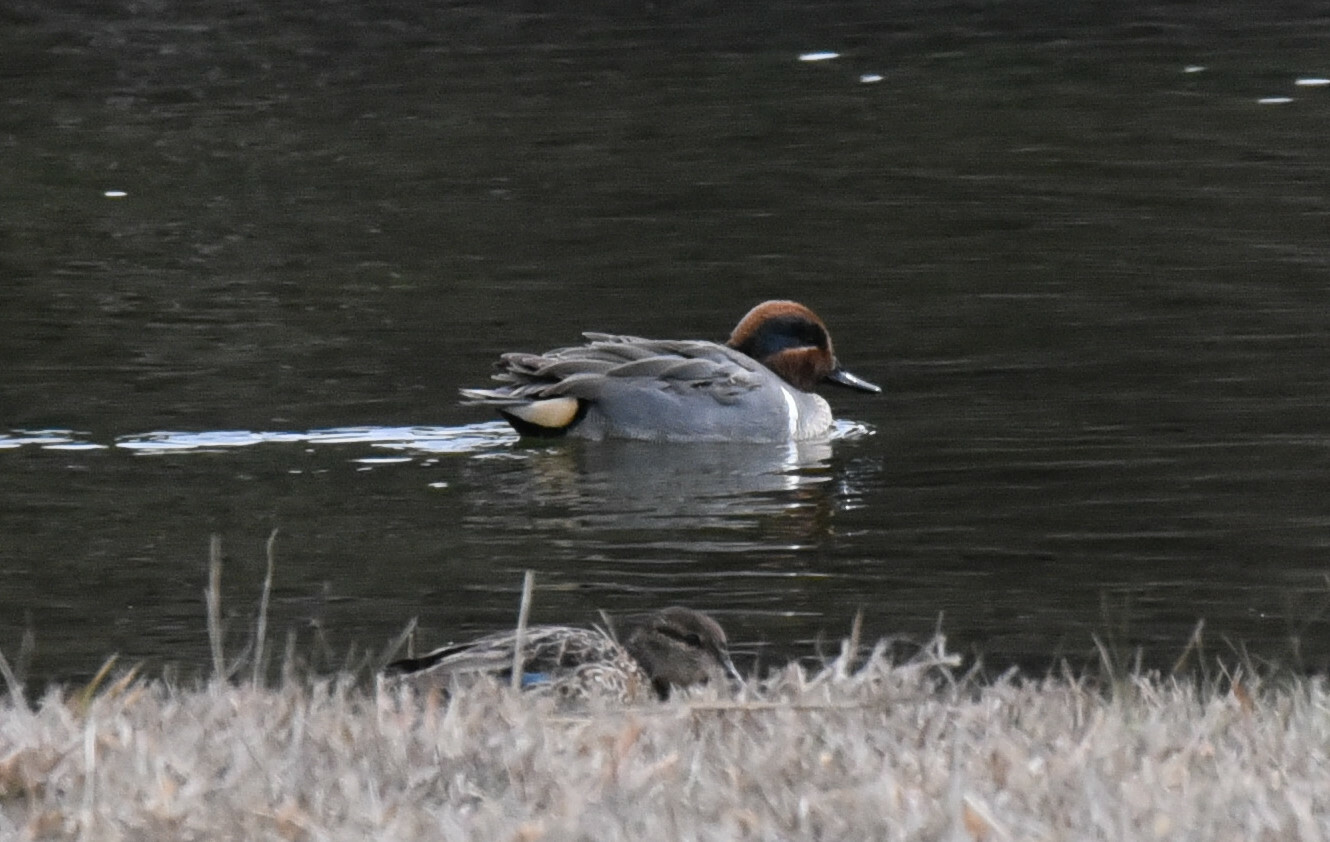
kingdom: Animalia
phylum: Chordata
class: Aves
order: Anseriformes
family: Anatidae
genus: Anas
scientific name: Anas crecca
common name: Eurasian teal
